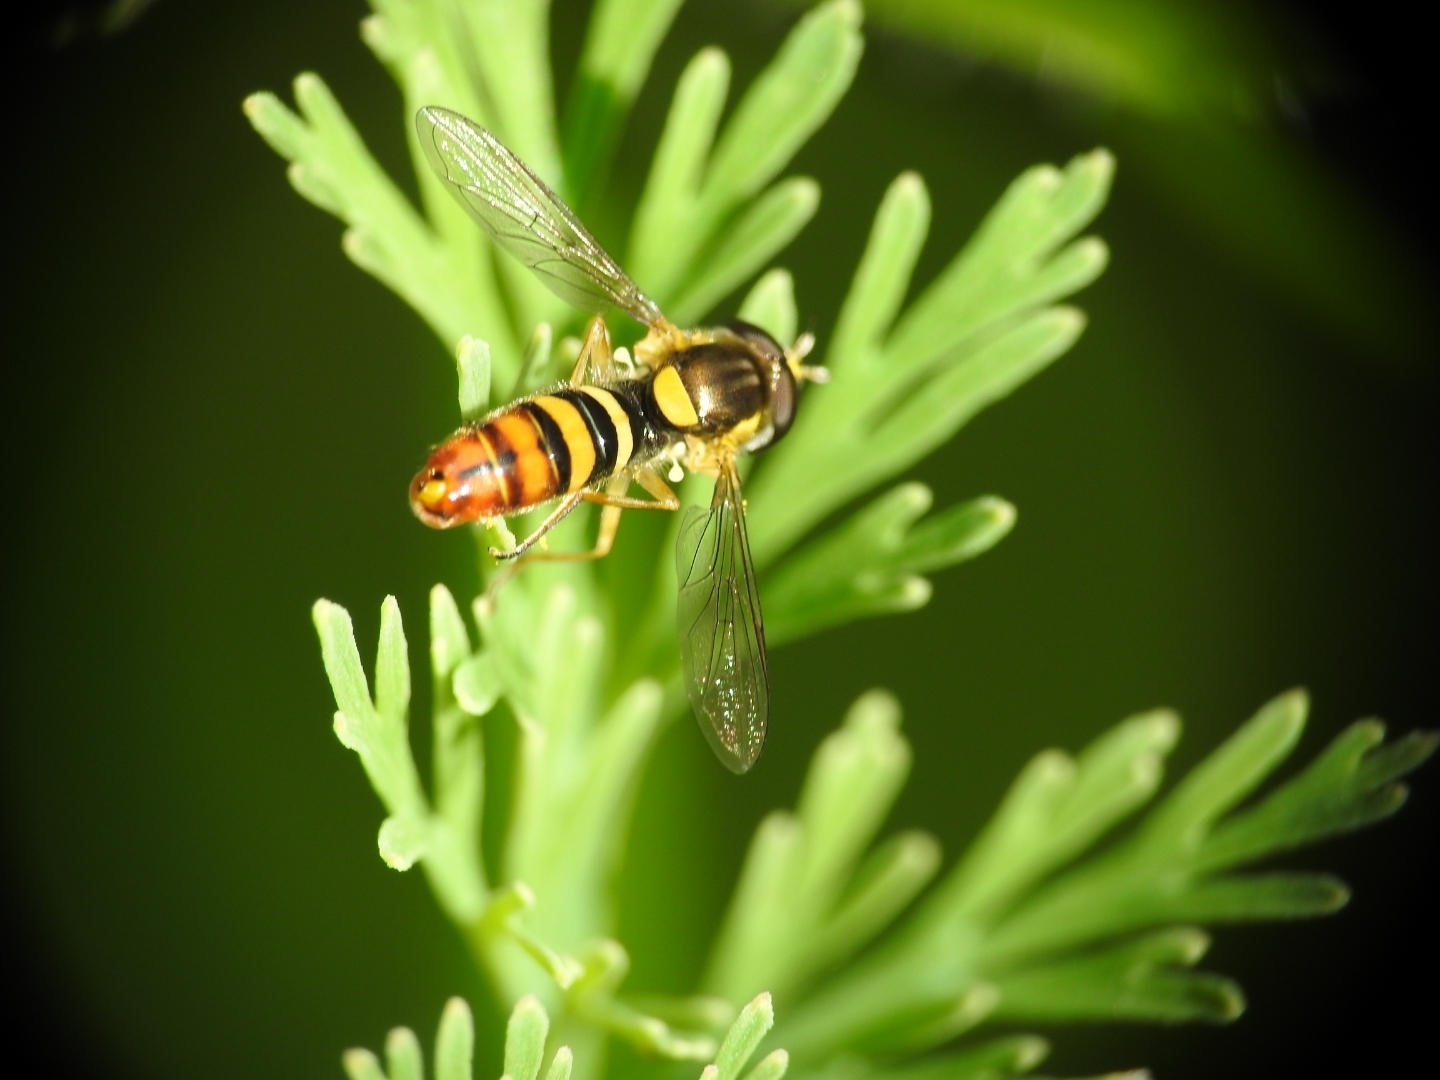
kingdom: Animalia
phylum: Arthropoda
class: Insecta
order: Diptera
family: Syrphidae
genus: Sphaerophoria
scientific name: Sphaerophoria sulphuripes
